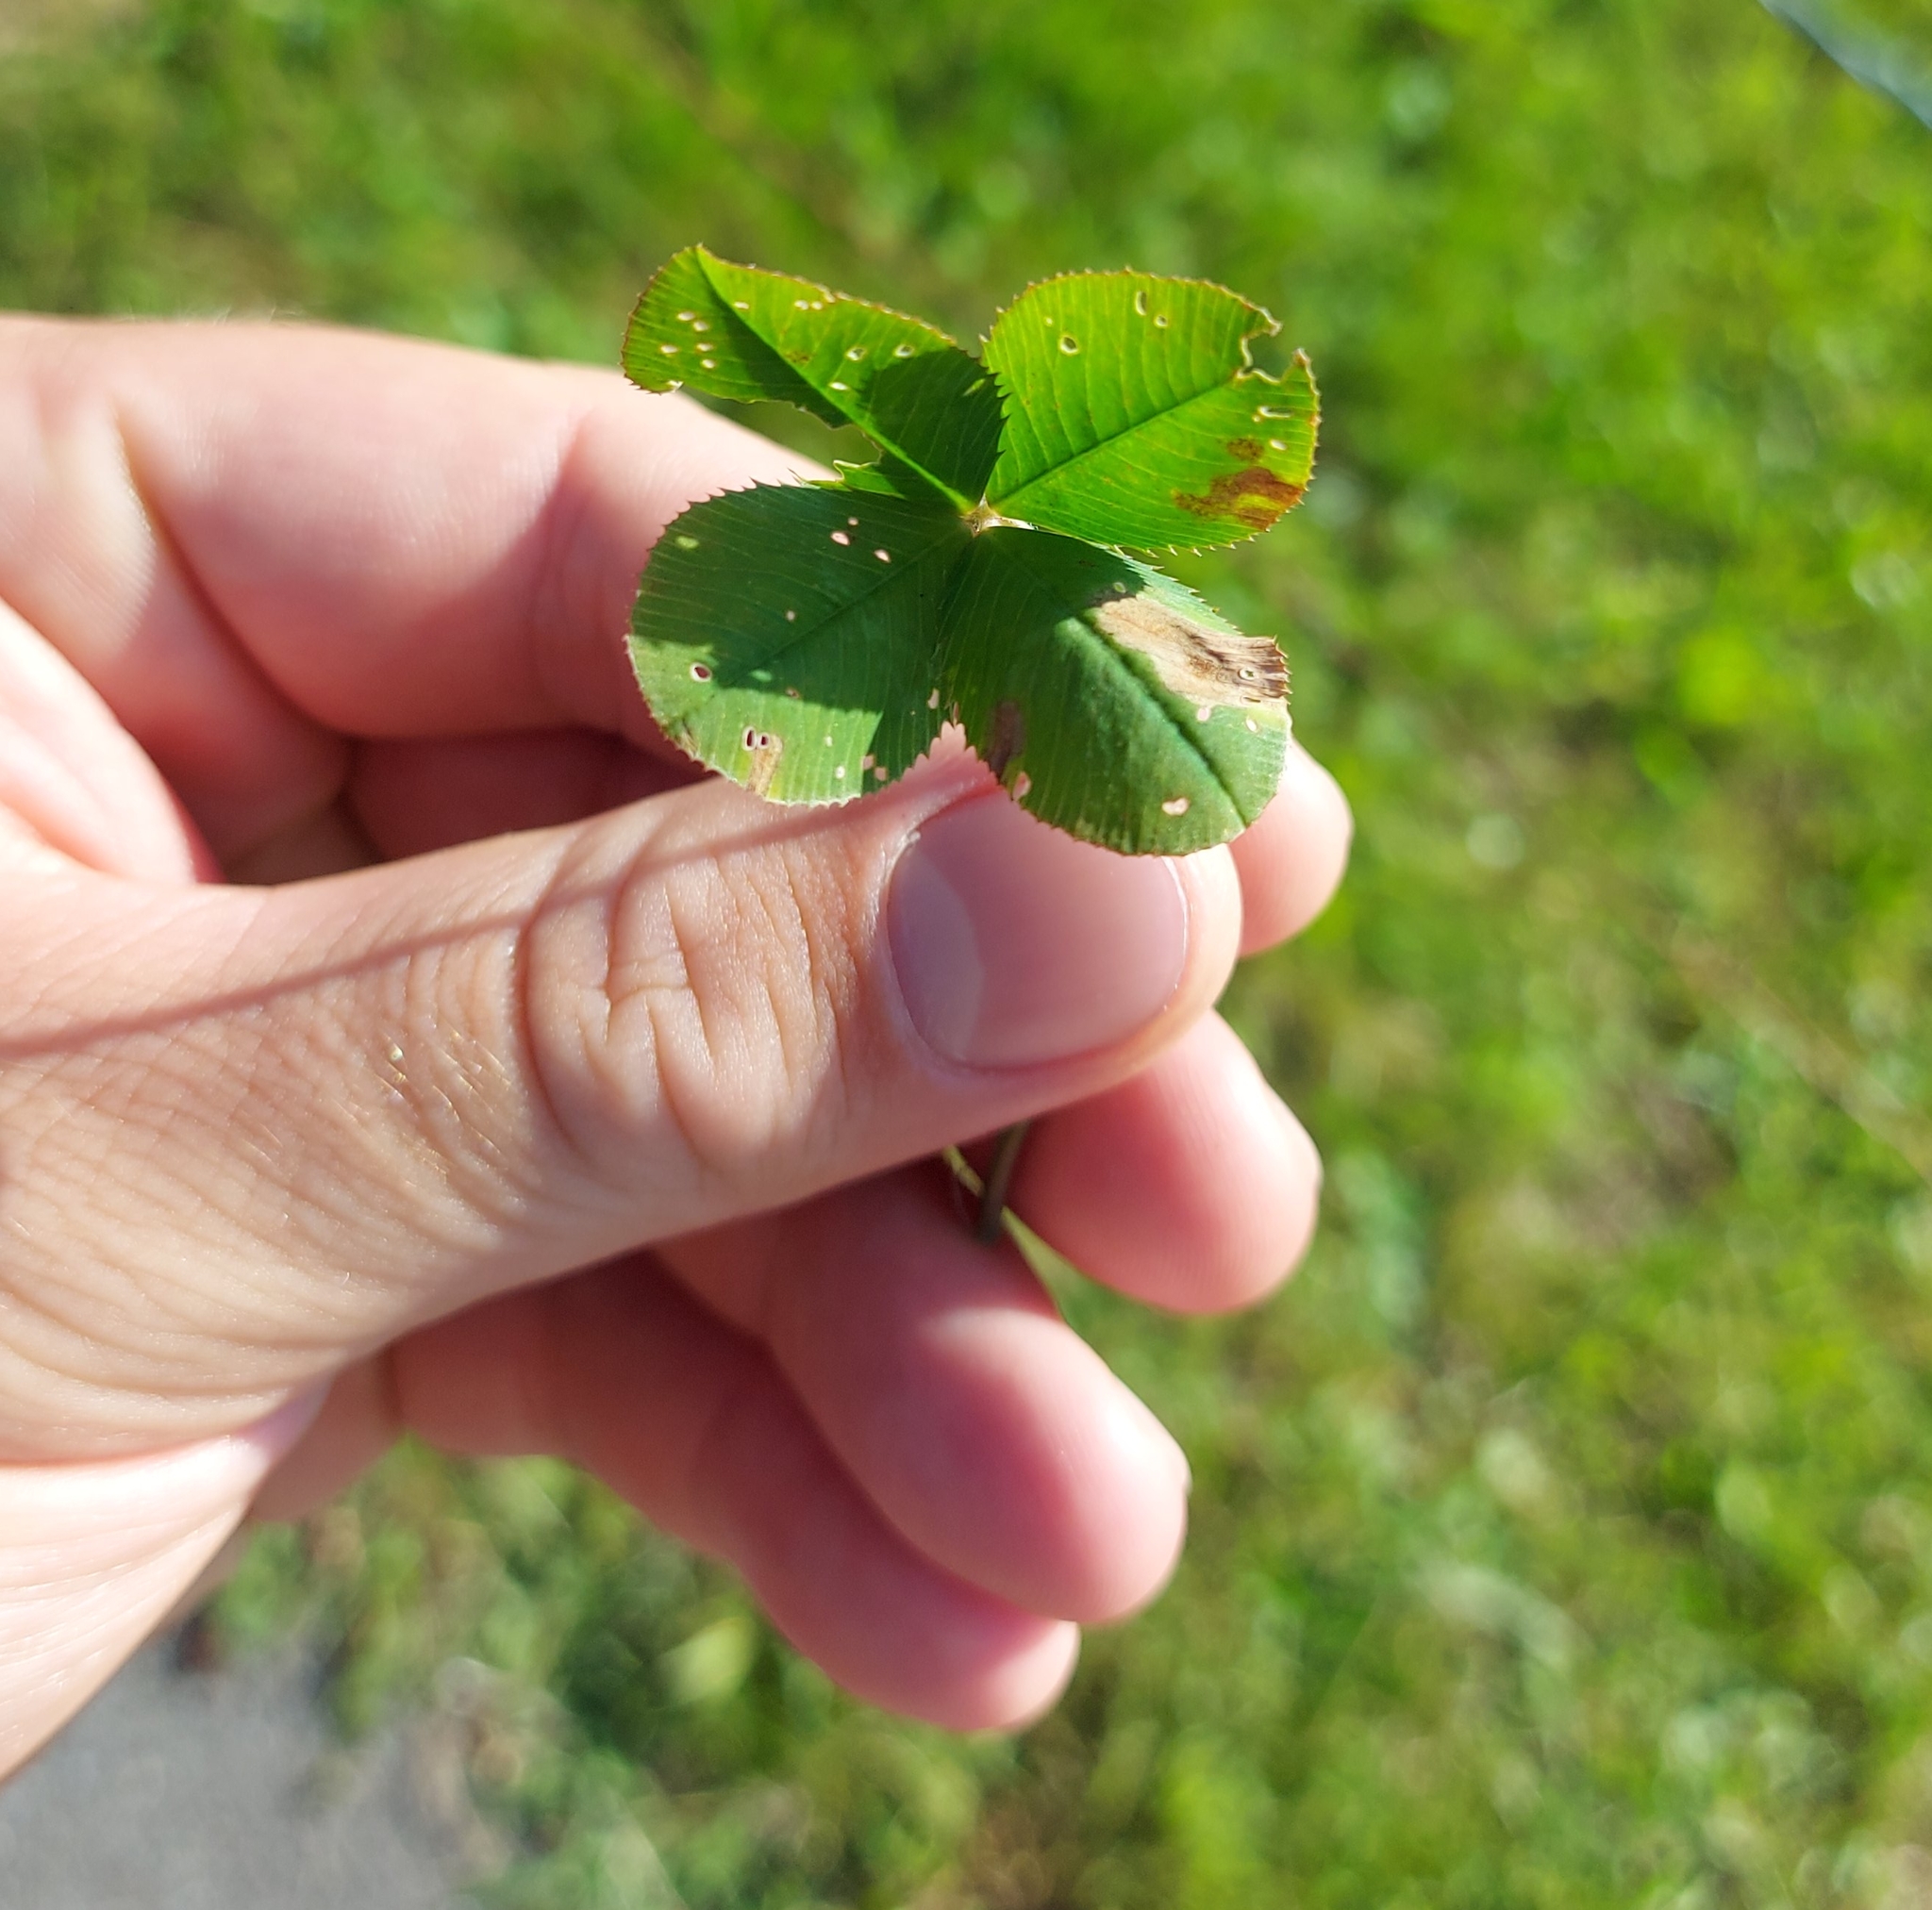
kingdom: Plantae
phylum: Tracheophyta
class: Magnoliopsida
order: Fabales
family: Fabaceae
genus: Trifolium
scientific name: Trifolium repens
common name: White clover
